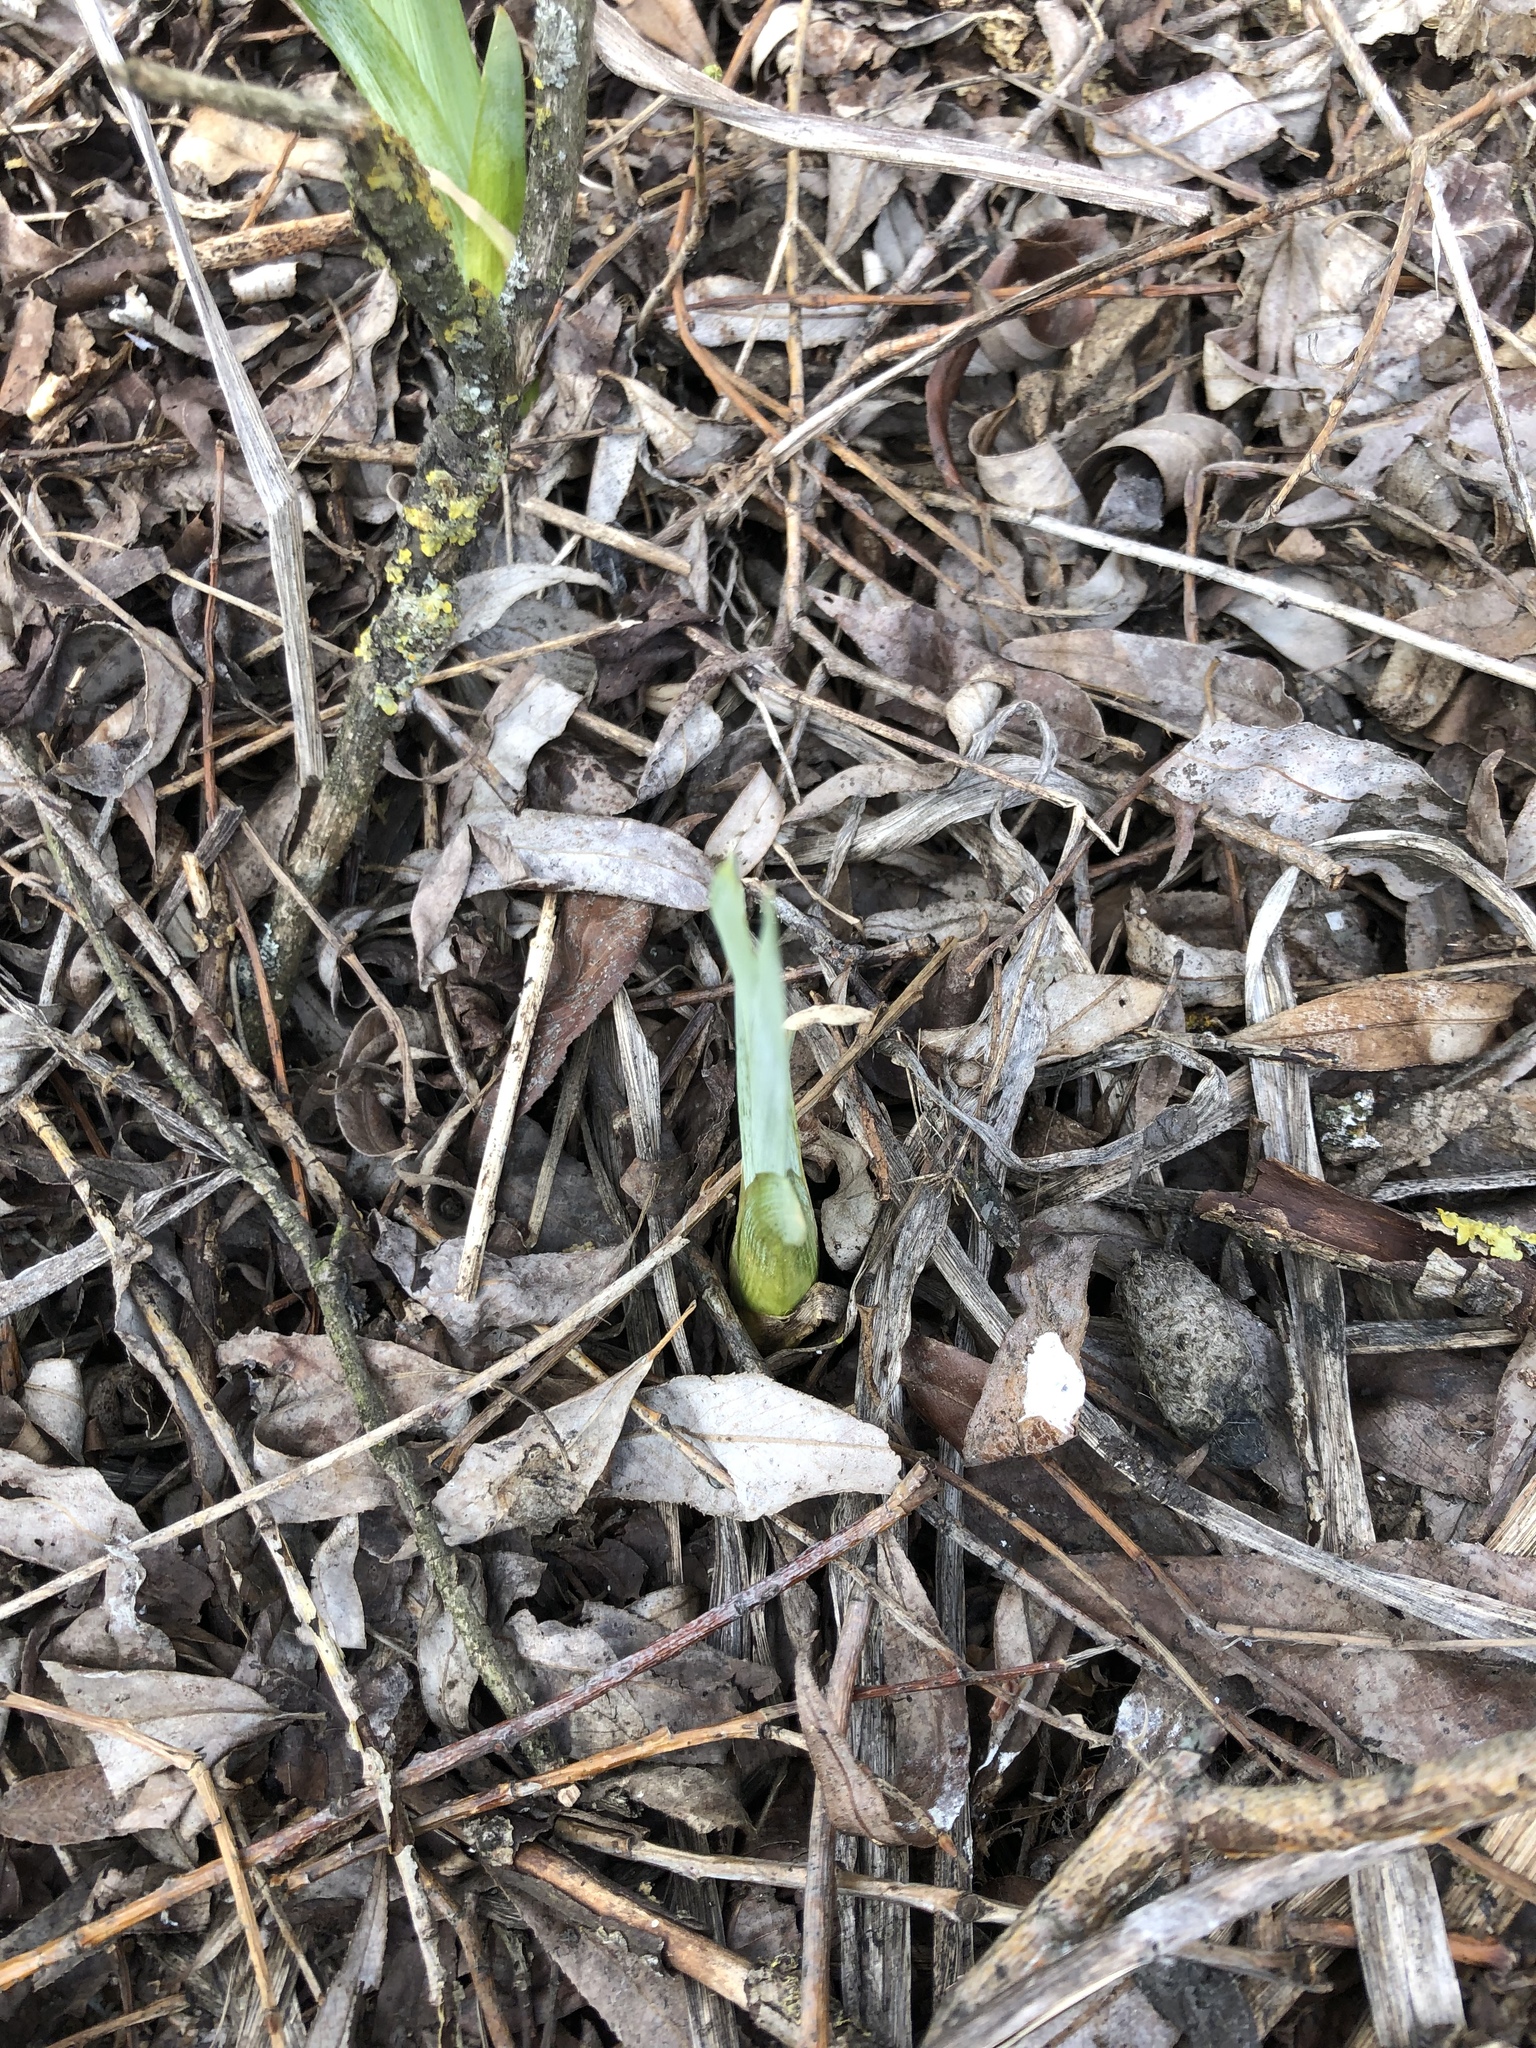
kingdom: Plantae
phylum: Tracheophyta
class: Liliopsida
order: Asparagales
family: Iridaceae
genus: Iris
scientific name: Iris pseudacorus
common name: Yellow flag
